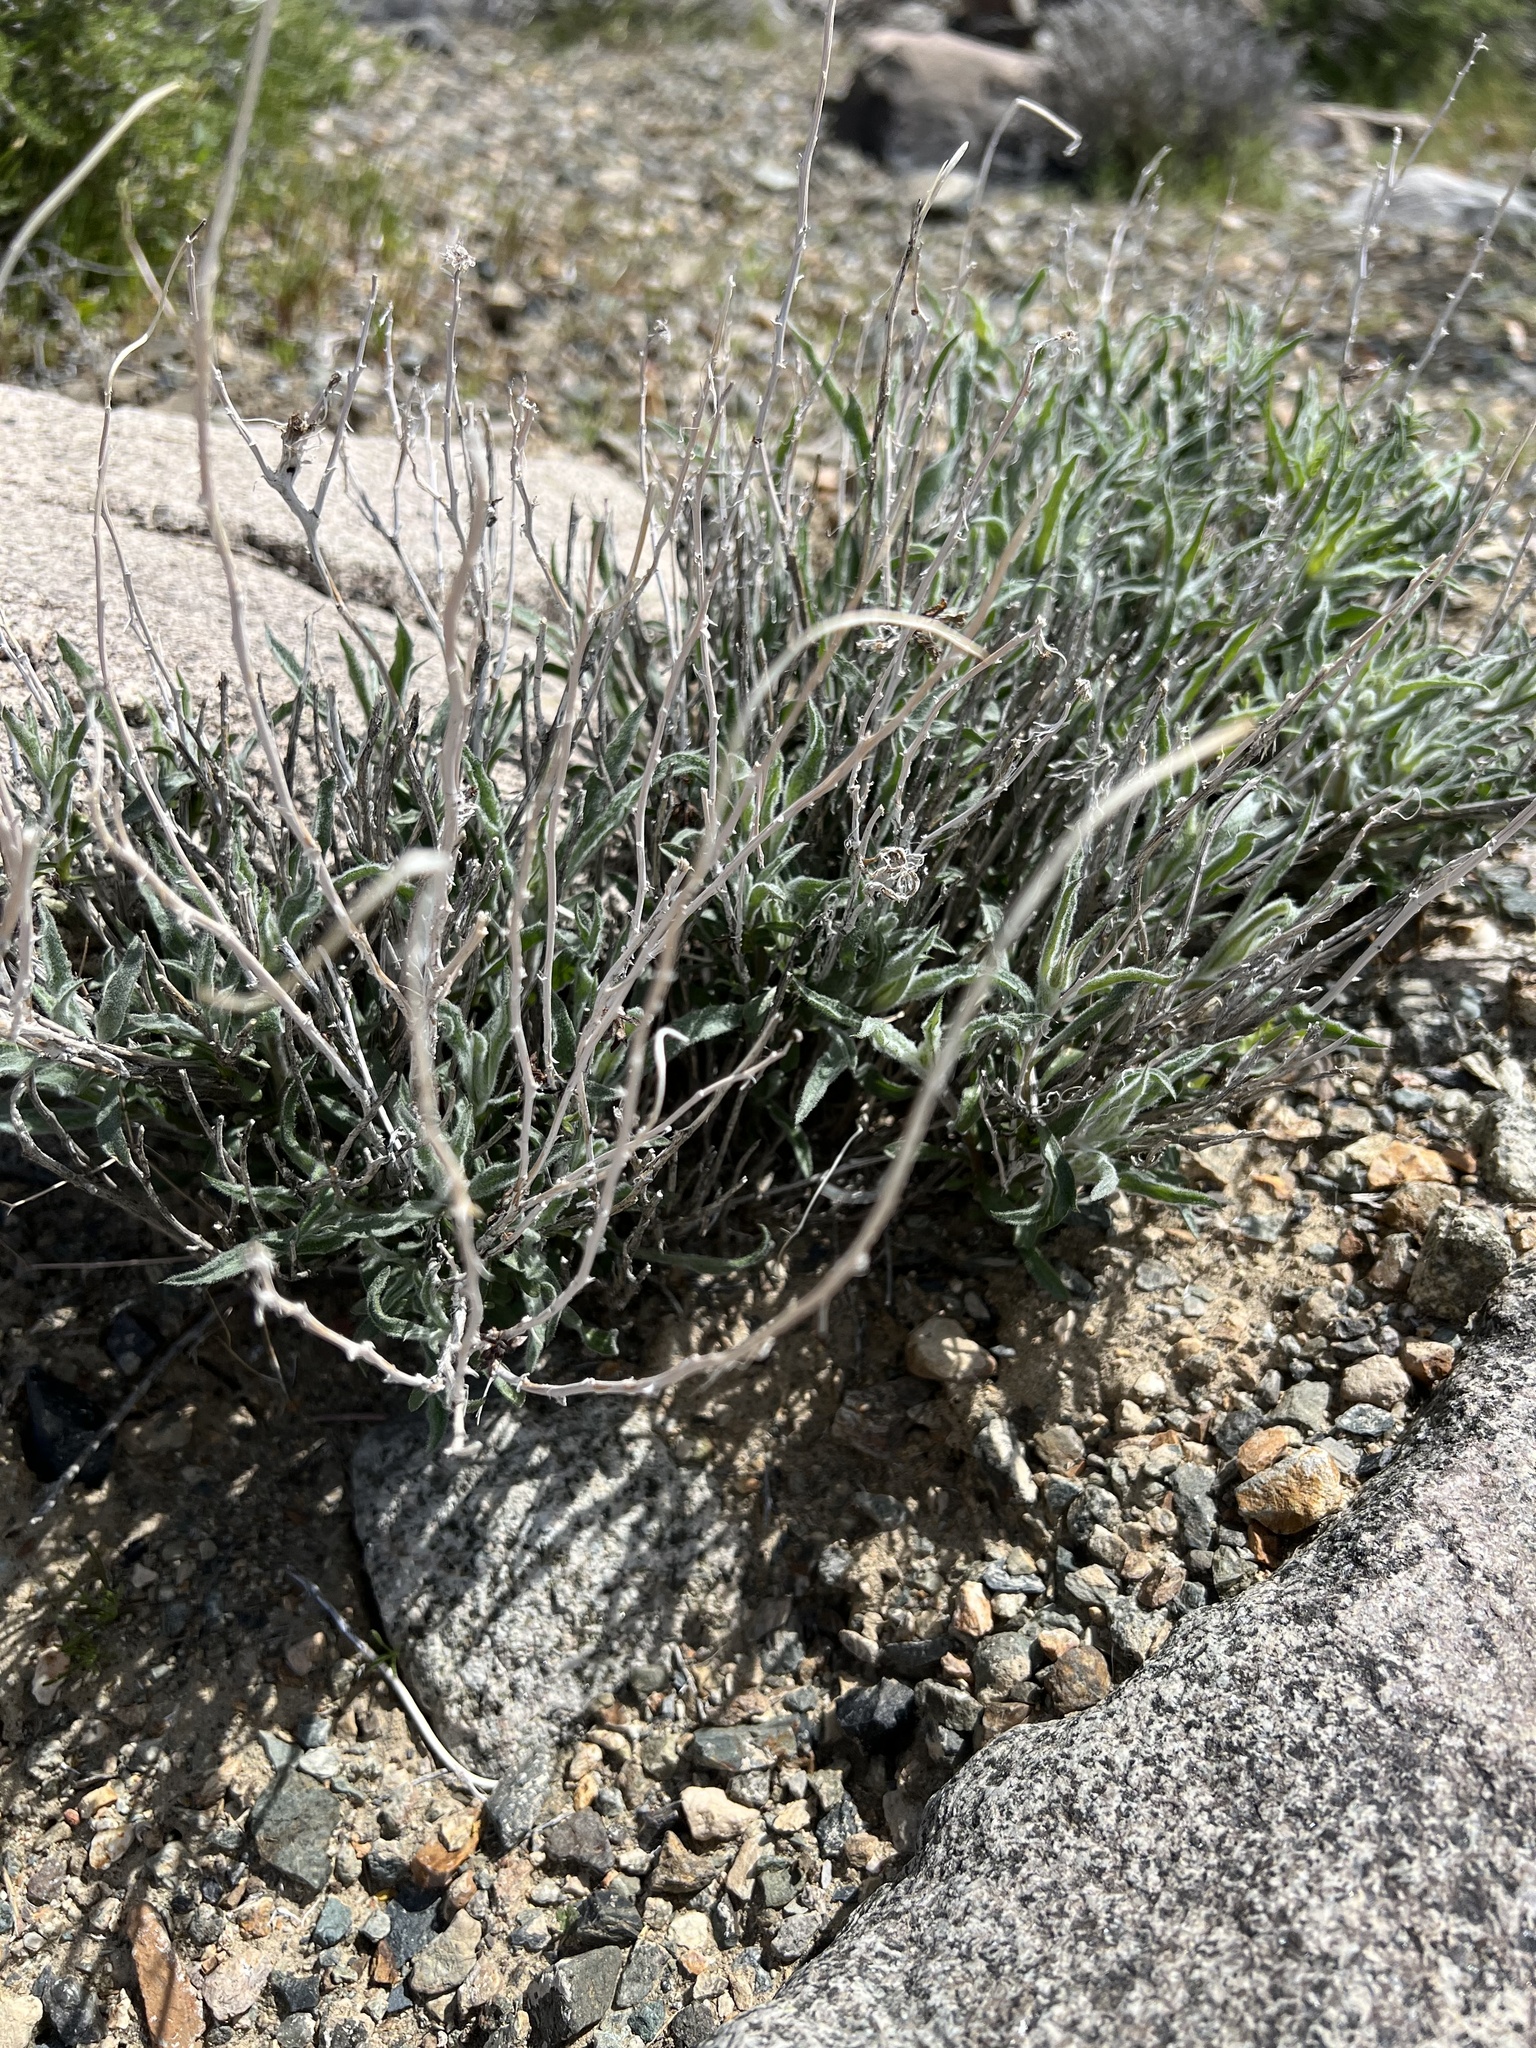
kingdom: Plantae
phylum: Tracheophyta
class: Magnoliopsida
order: Asterales
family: Asteraceae
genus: Xylorhiza
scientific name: Xylorhiza tortifolia
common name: Hurt-leaf woody-aster
